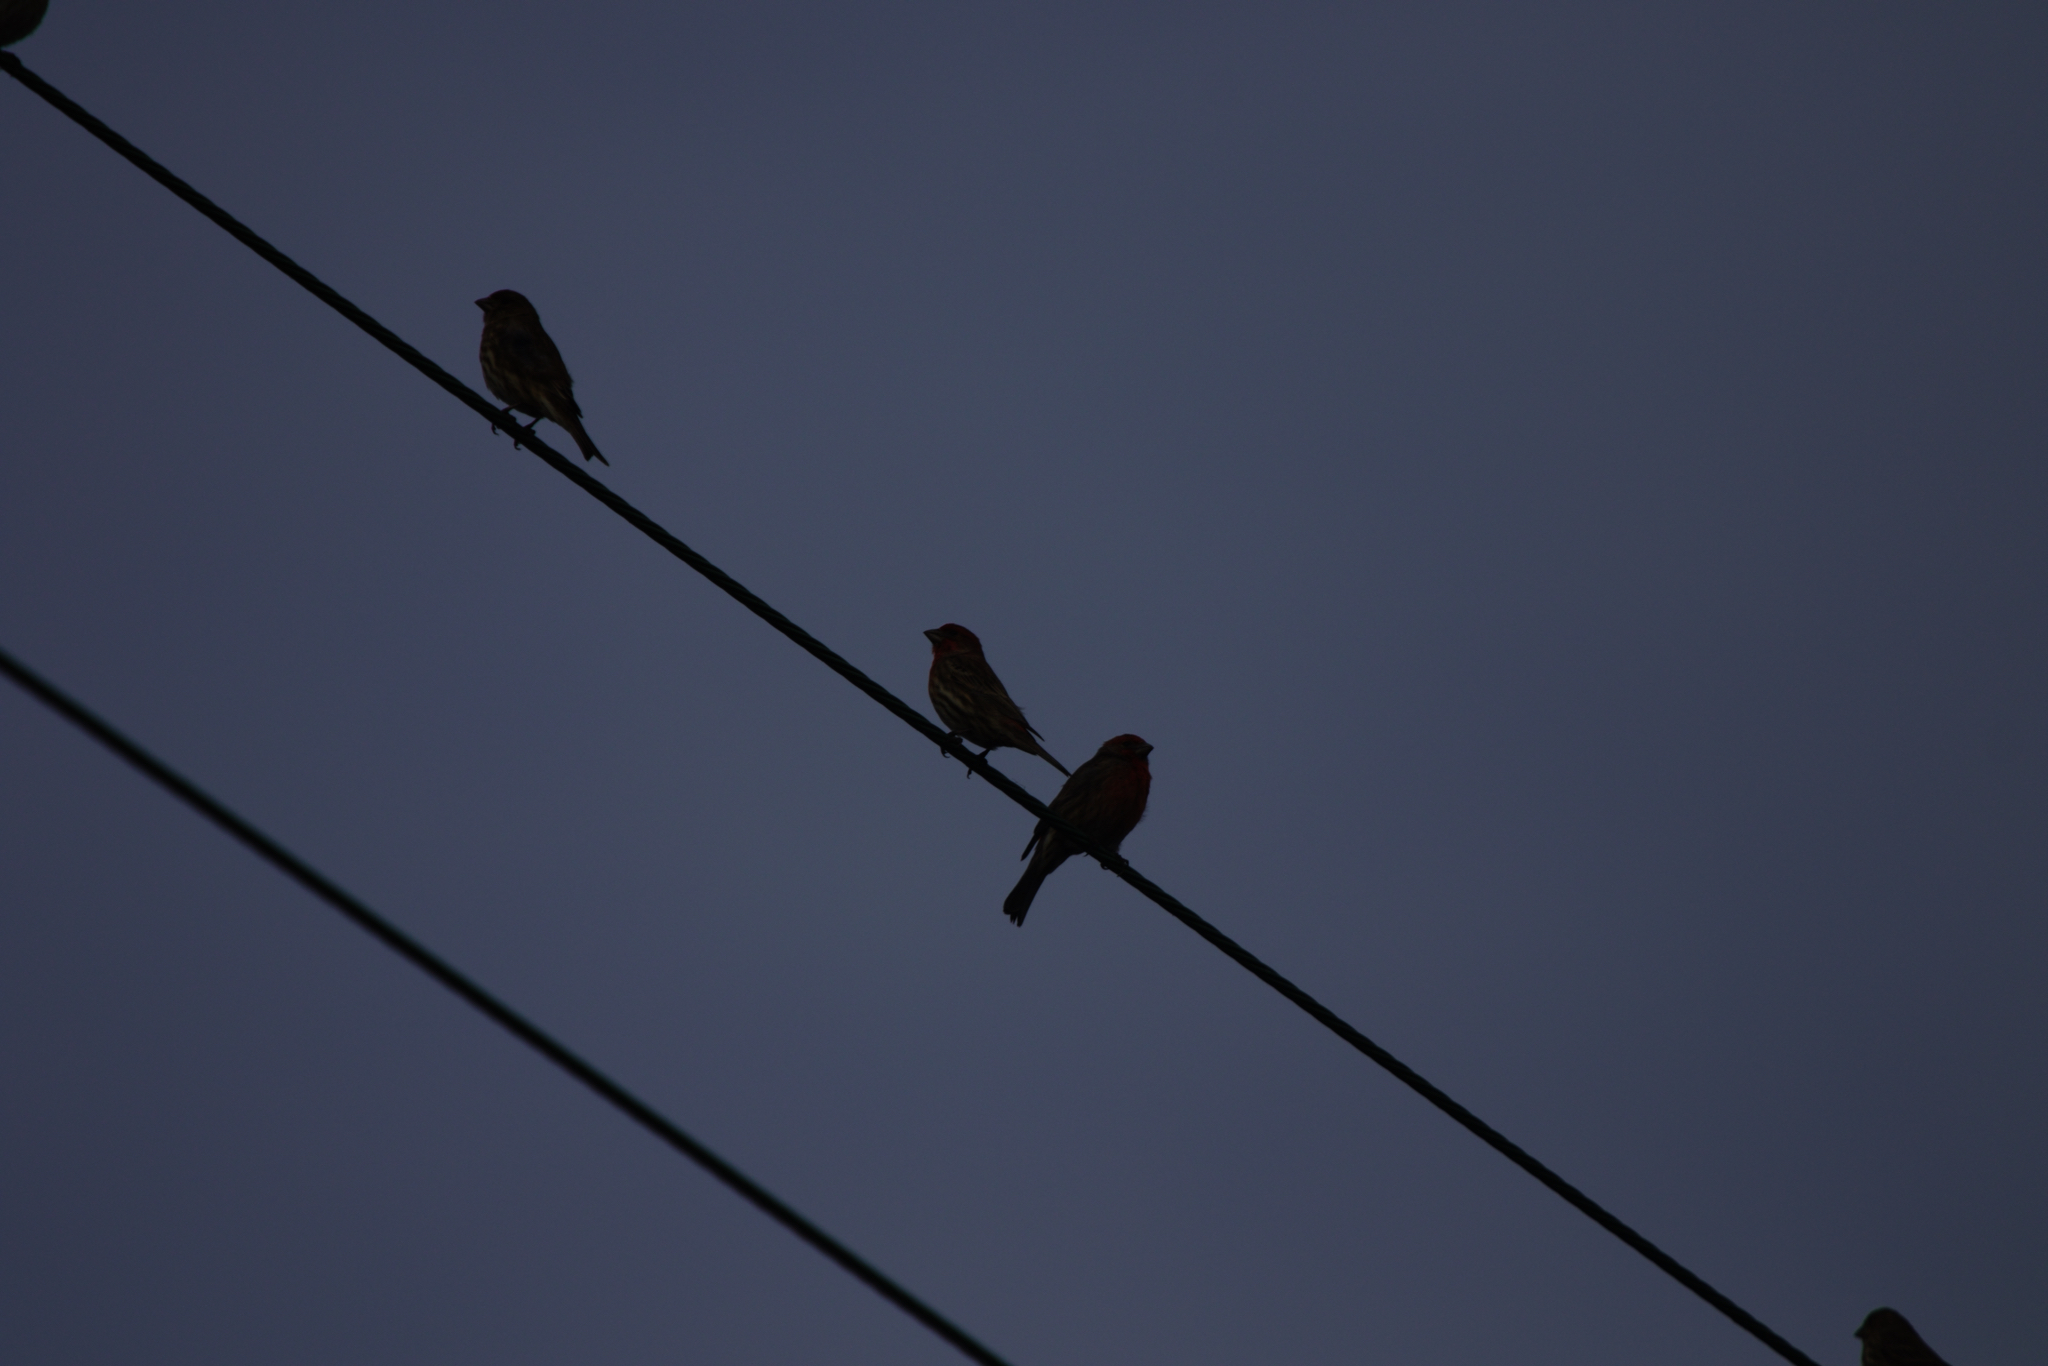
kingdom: Animalia
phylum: Chordata
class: Aves
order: Passeriformes
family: Fringillidae
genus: Haemorhous
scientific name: Haemorhous mexicanus
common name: House finch
